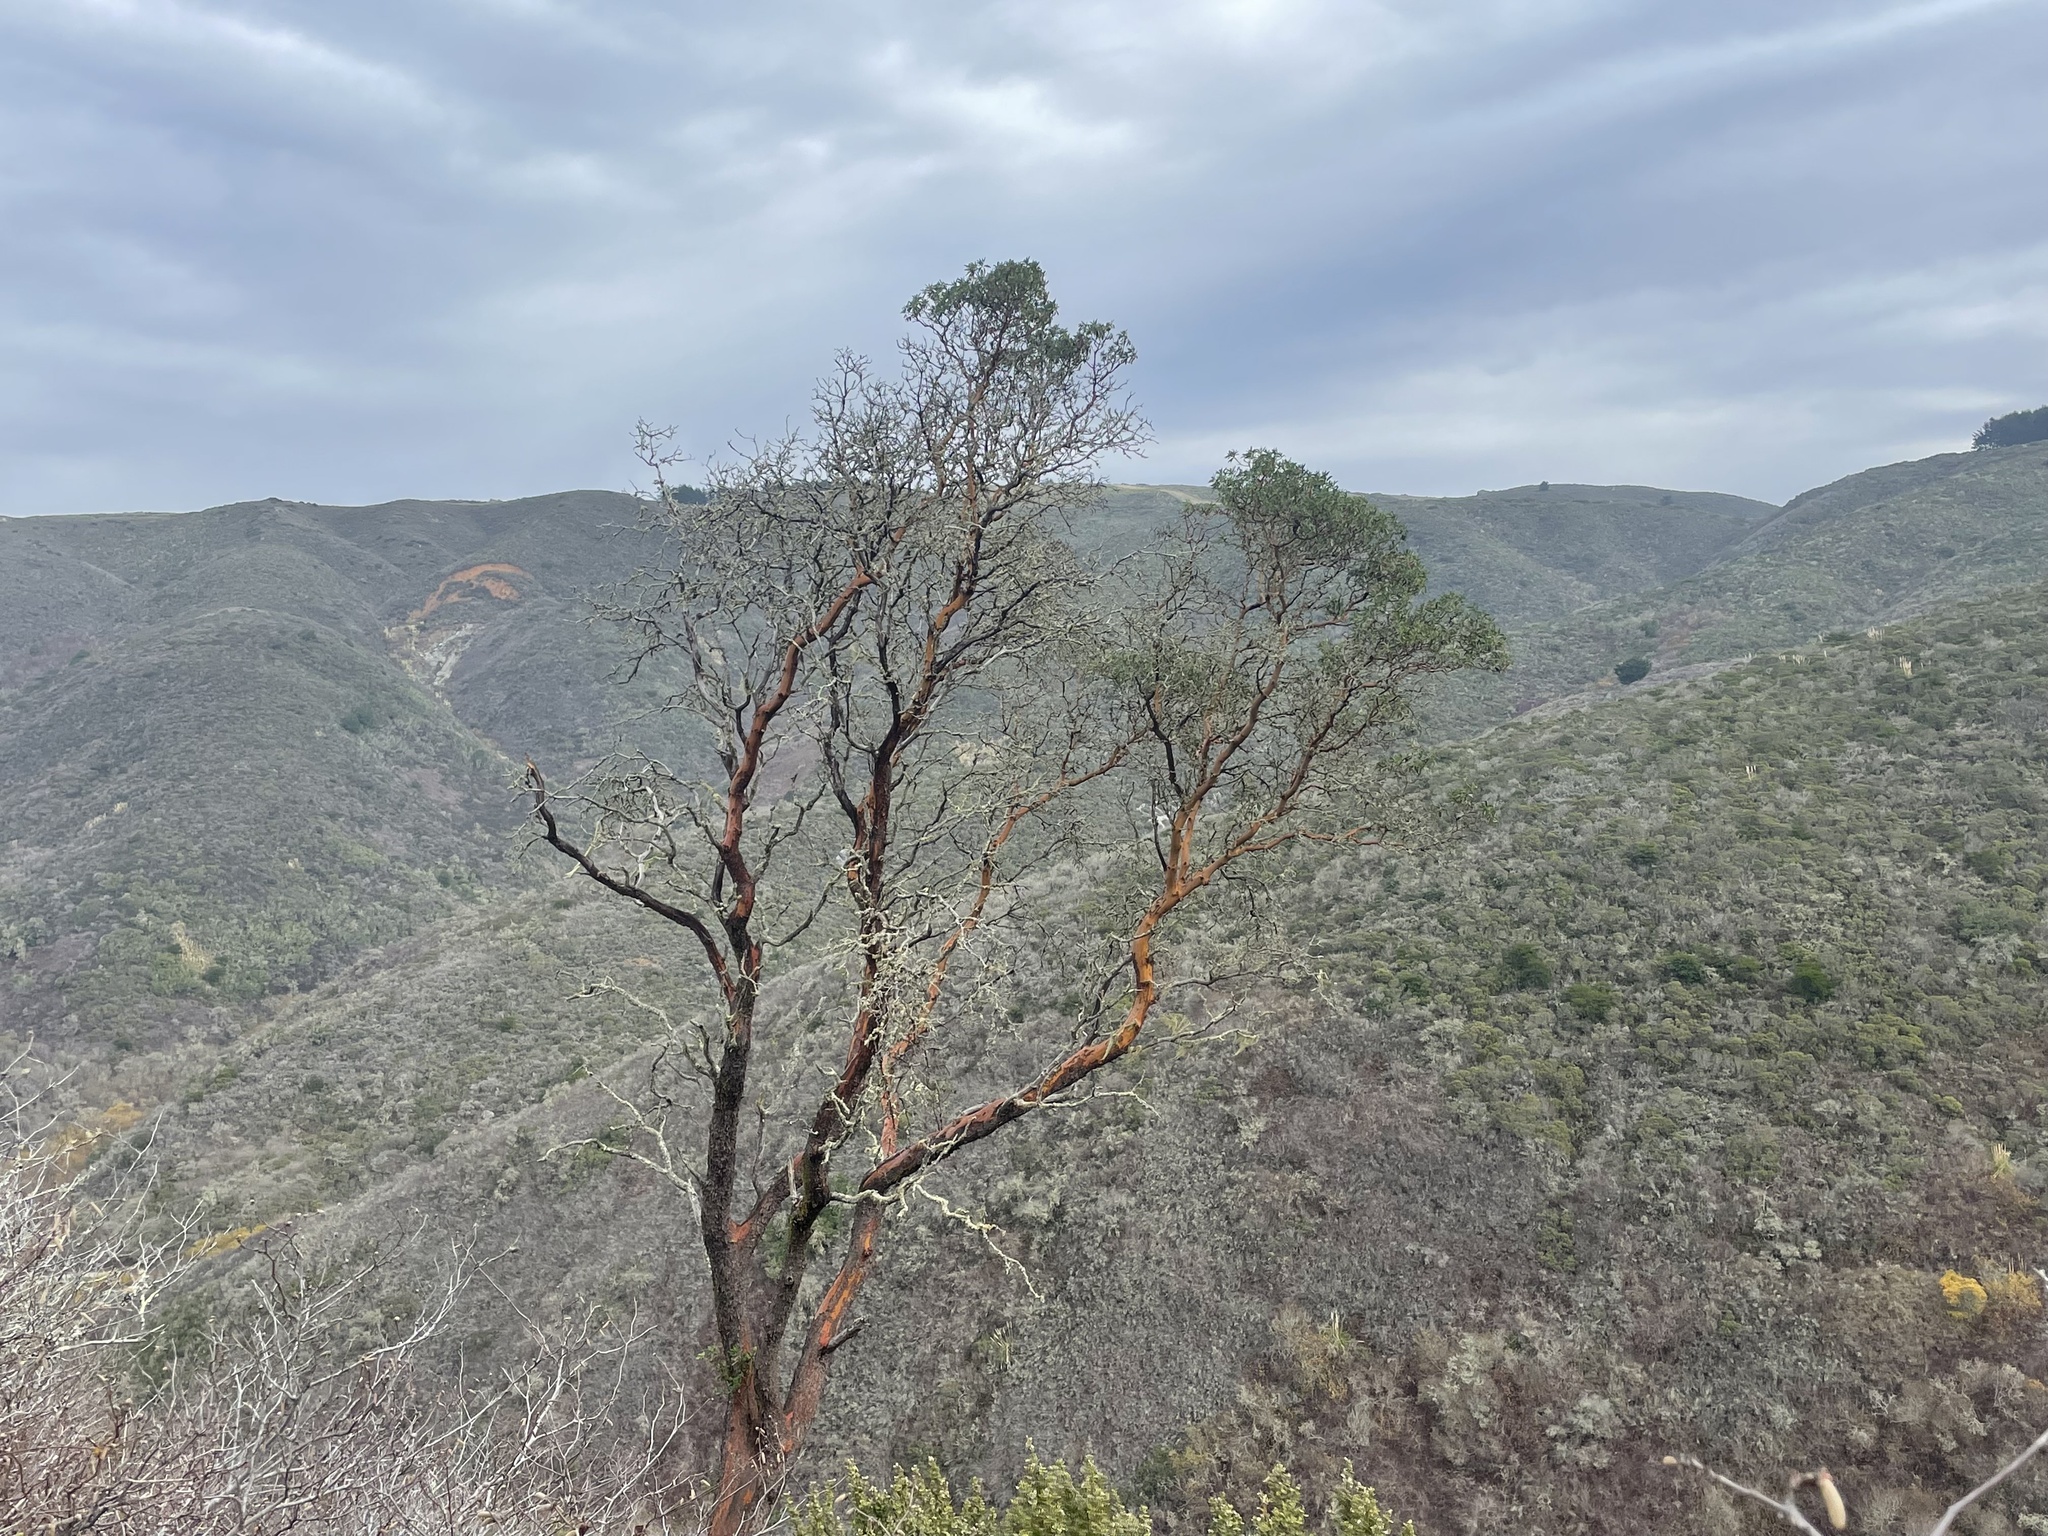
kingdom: Plantae
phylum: Tracheophyta
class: Magnoliopsida
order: Ericales
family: Ericaceae
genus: Arbutus
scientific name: Arbutus menziesii
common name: Pacific madrone
